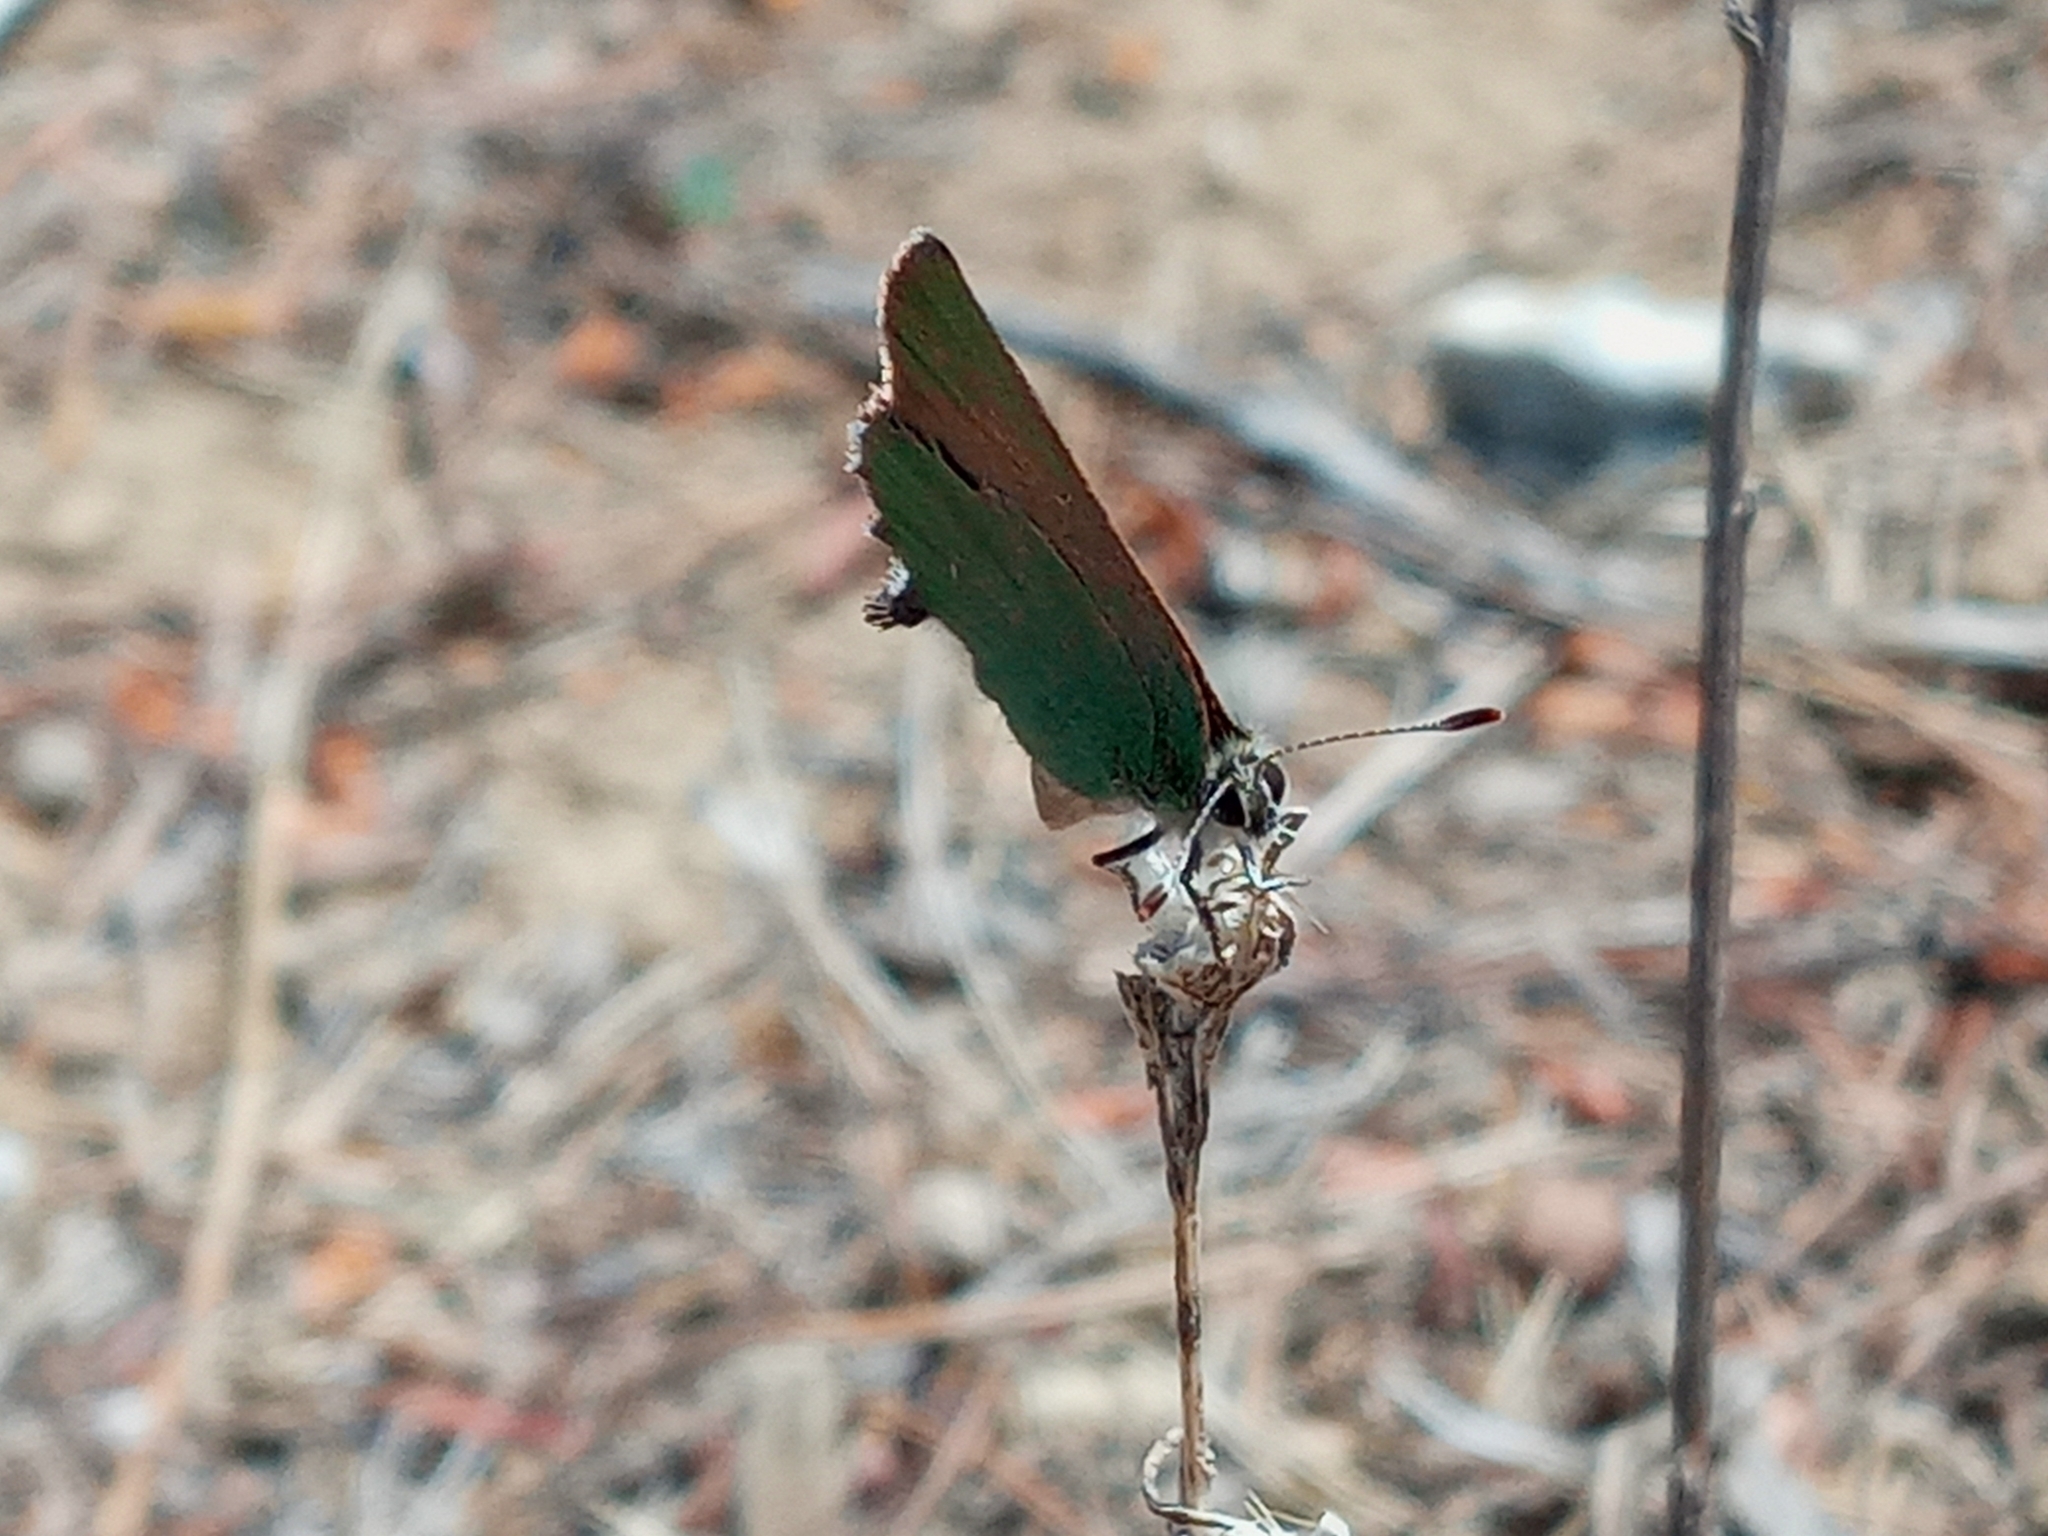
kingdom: Animalia
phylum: Arthropoda
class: Insecta
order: Lepidoptera
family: Lycaenidae
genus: Callophrys
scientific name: Callophrys dumetorum
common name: Bramble hairstreak
